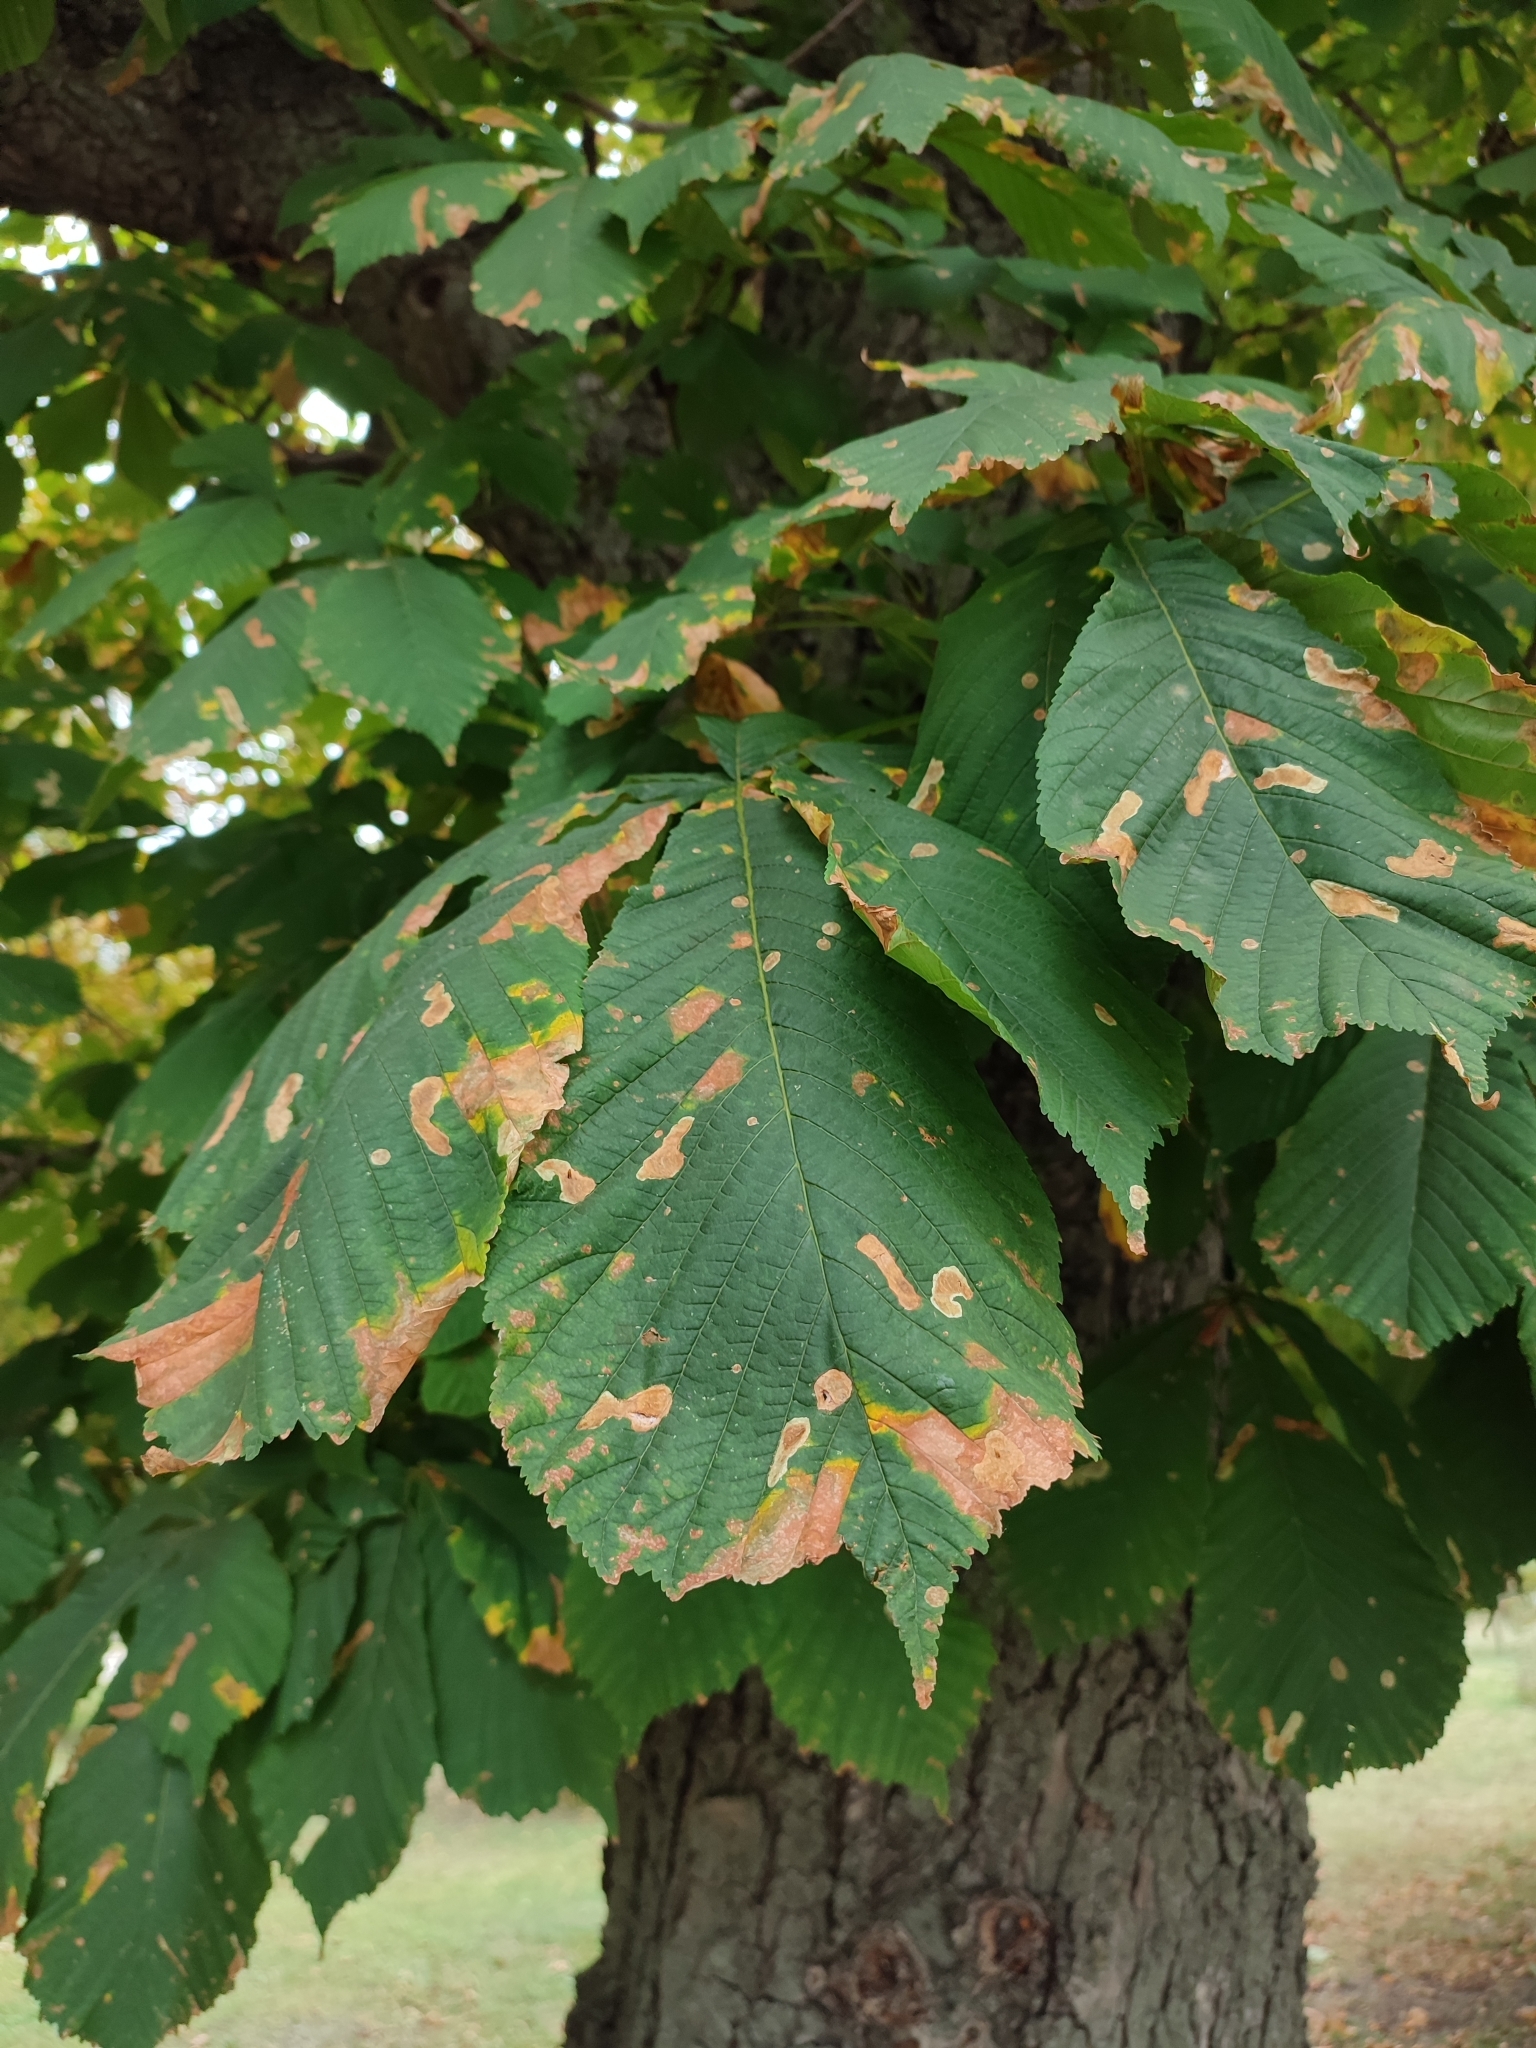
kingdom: Animalia
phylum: Arthropoda
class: Insecta
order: Lepidoptera
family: Gracillariidae
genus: Cameraria
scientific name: Cameraria ohridella
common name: Horse-chestnut leaf-miner
